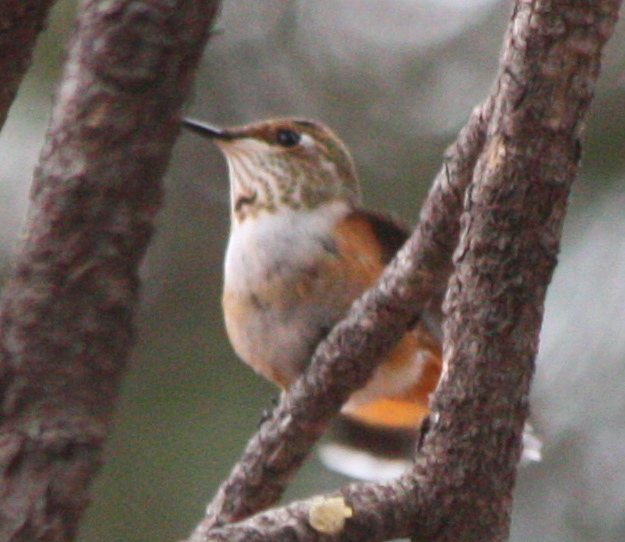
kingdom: Animalia
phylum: Chordata
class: Aves
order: Apodiformes
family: Trochilidae
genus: Selasphorus
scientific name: Selasphorus rufus
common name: Rufous hummingbird
